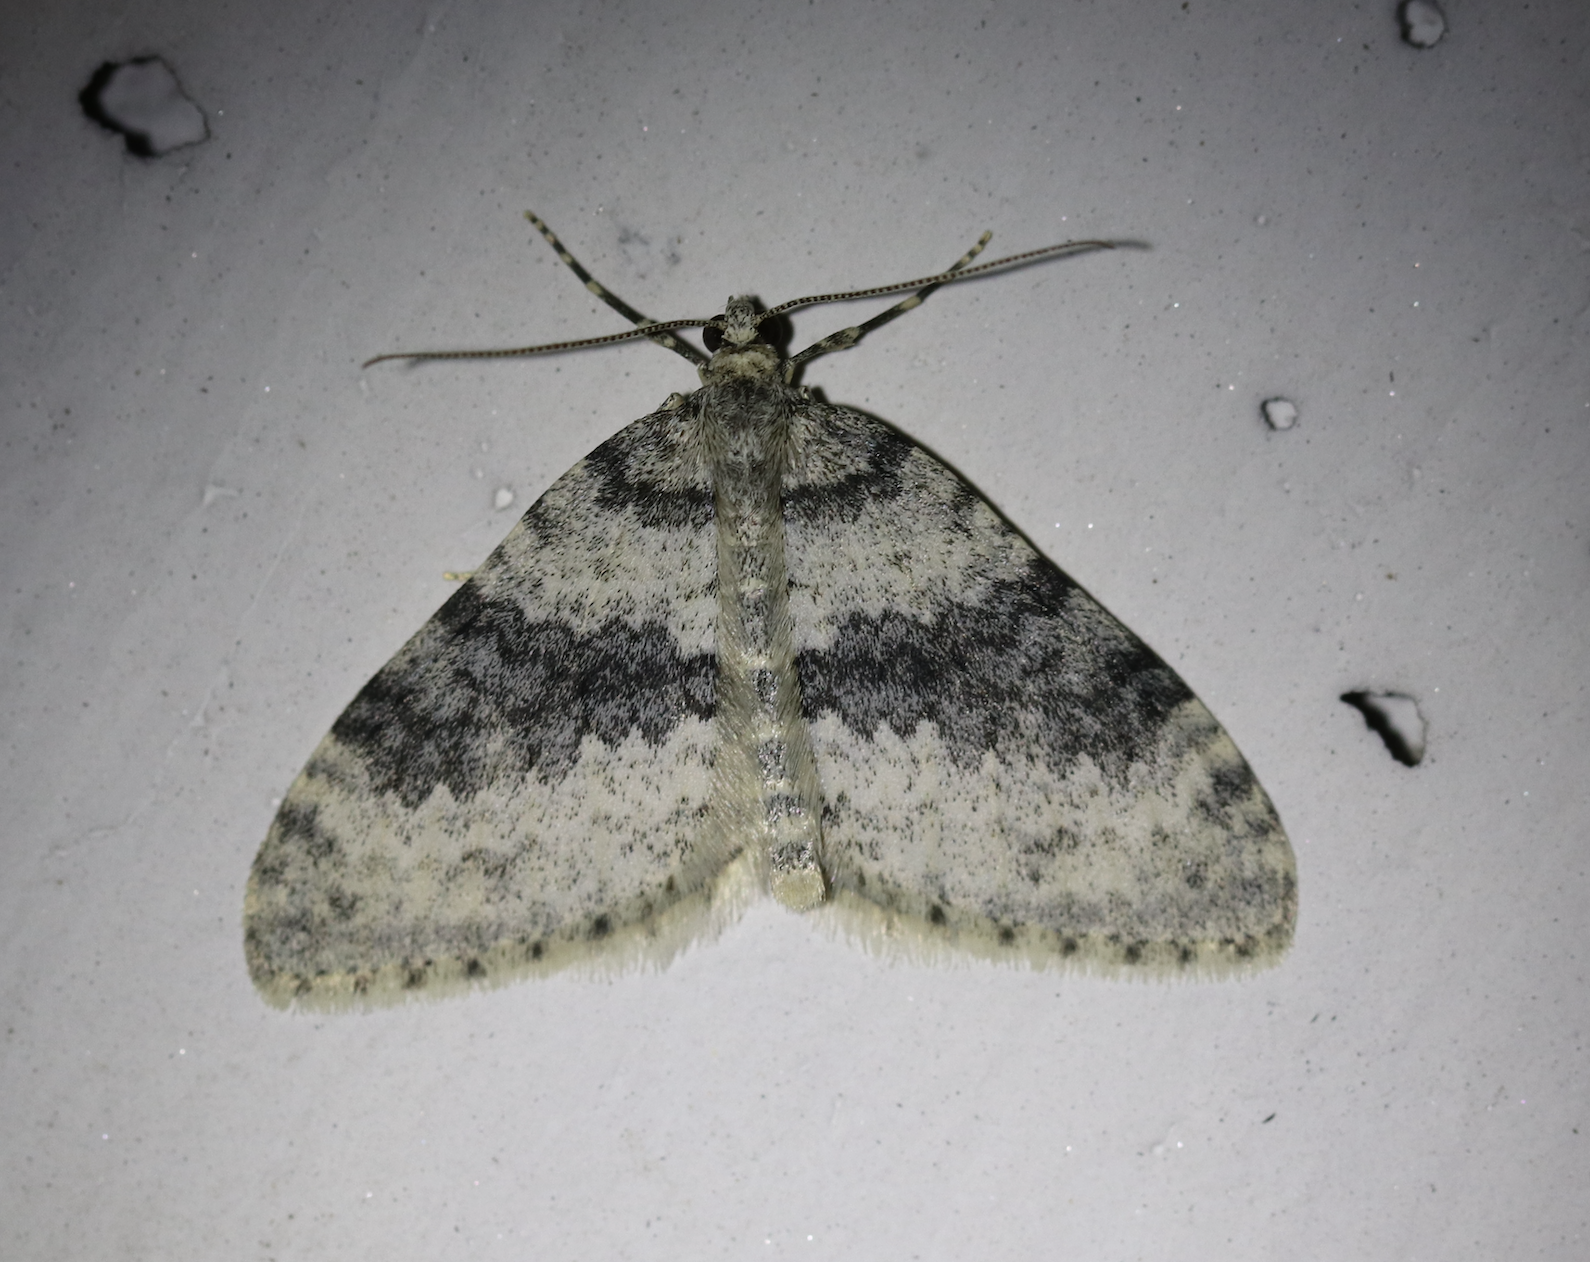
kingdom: Animalia
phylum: Arthropoda
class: Insecta
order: Lepidoptera
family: Geometridae
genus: Entephria
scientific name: Entephria cyanata
